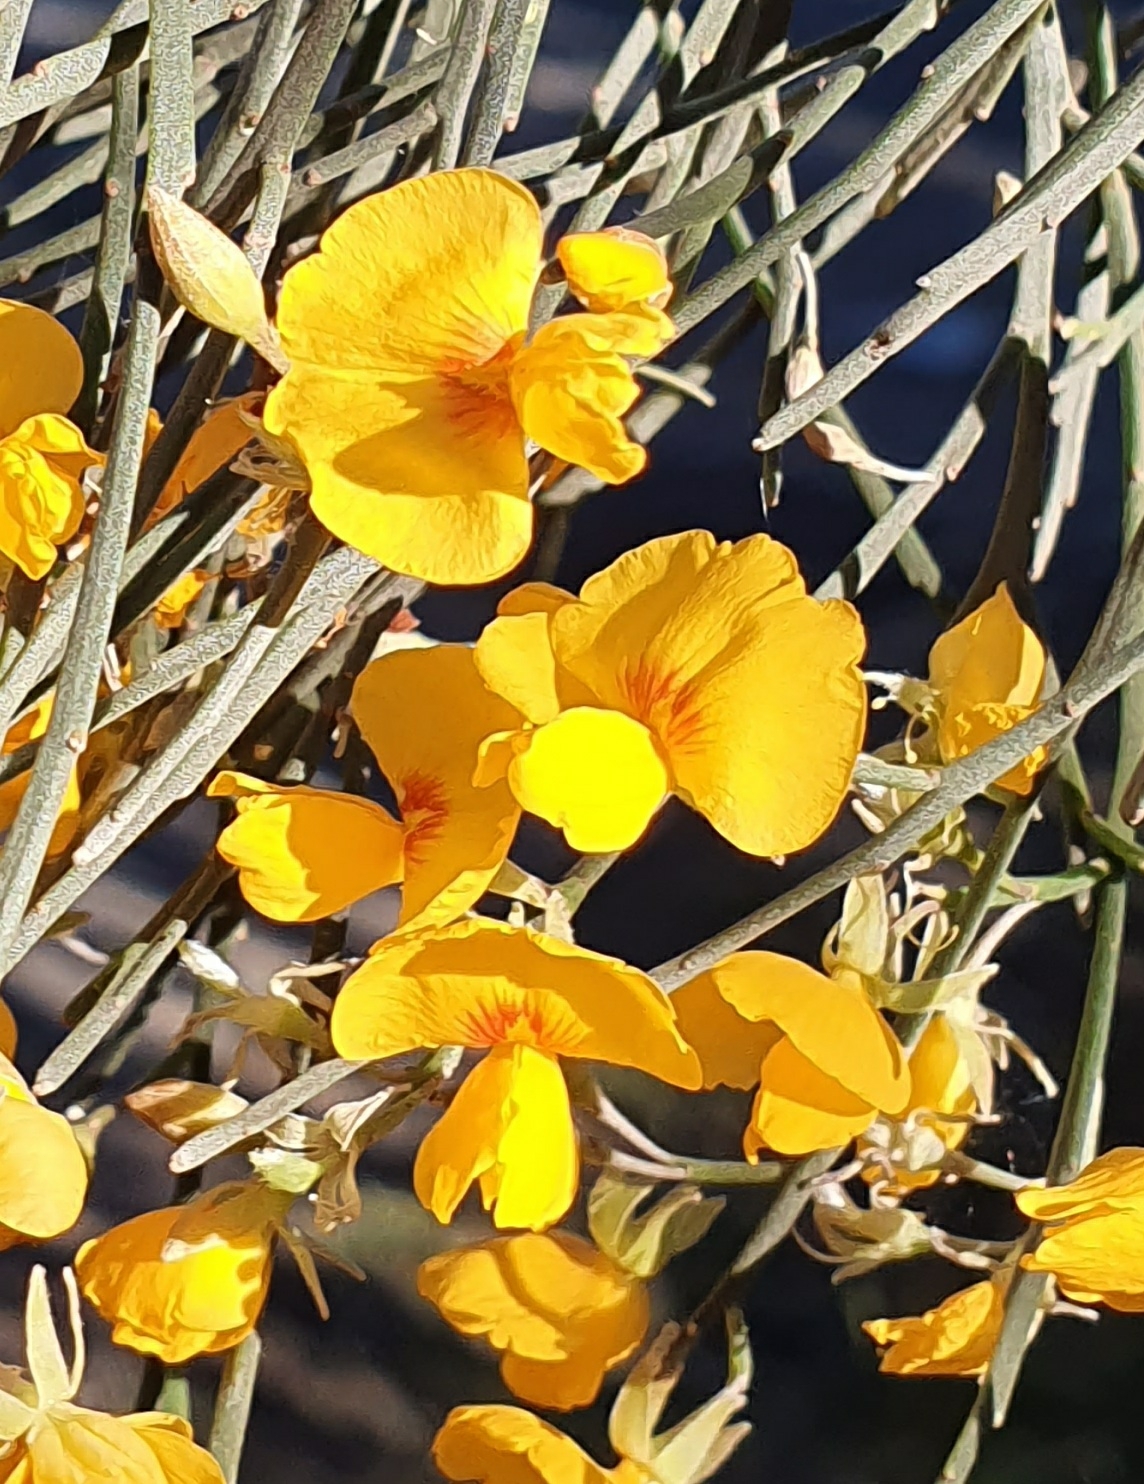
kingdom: Plantae
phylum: Tracheophyta
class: Magnoliopsida
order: Fabales
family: Fabaceae
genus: Jacksonia
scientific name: Jacksonia scoparia
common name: Dogwood
